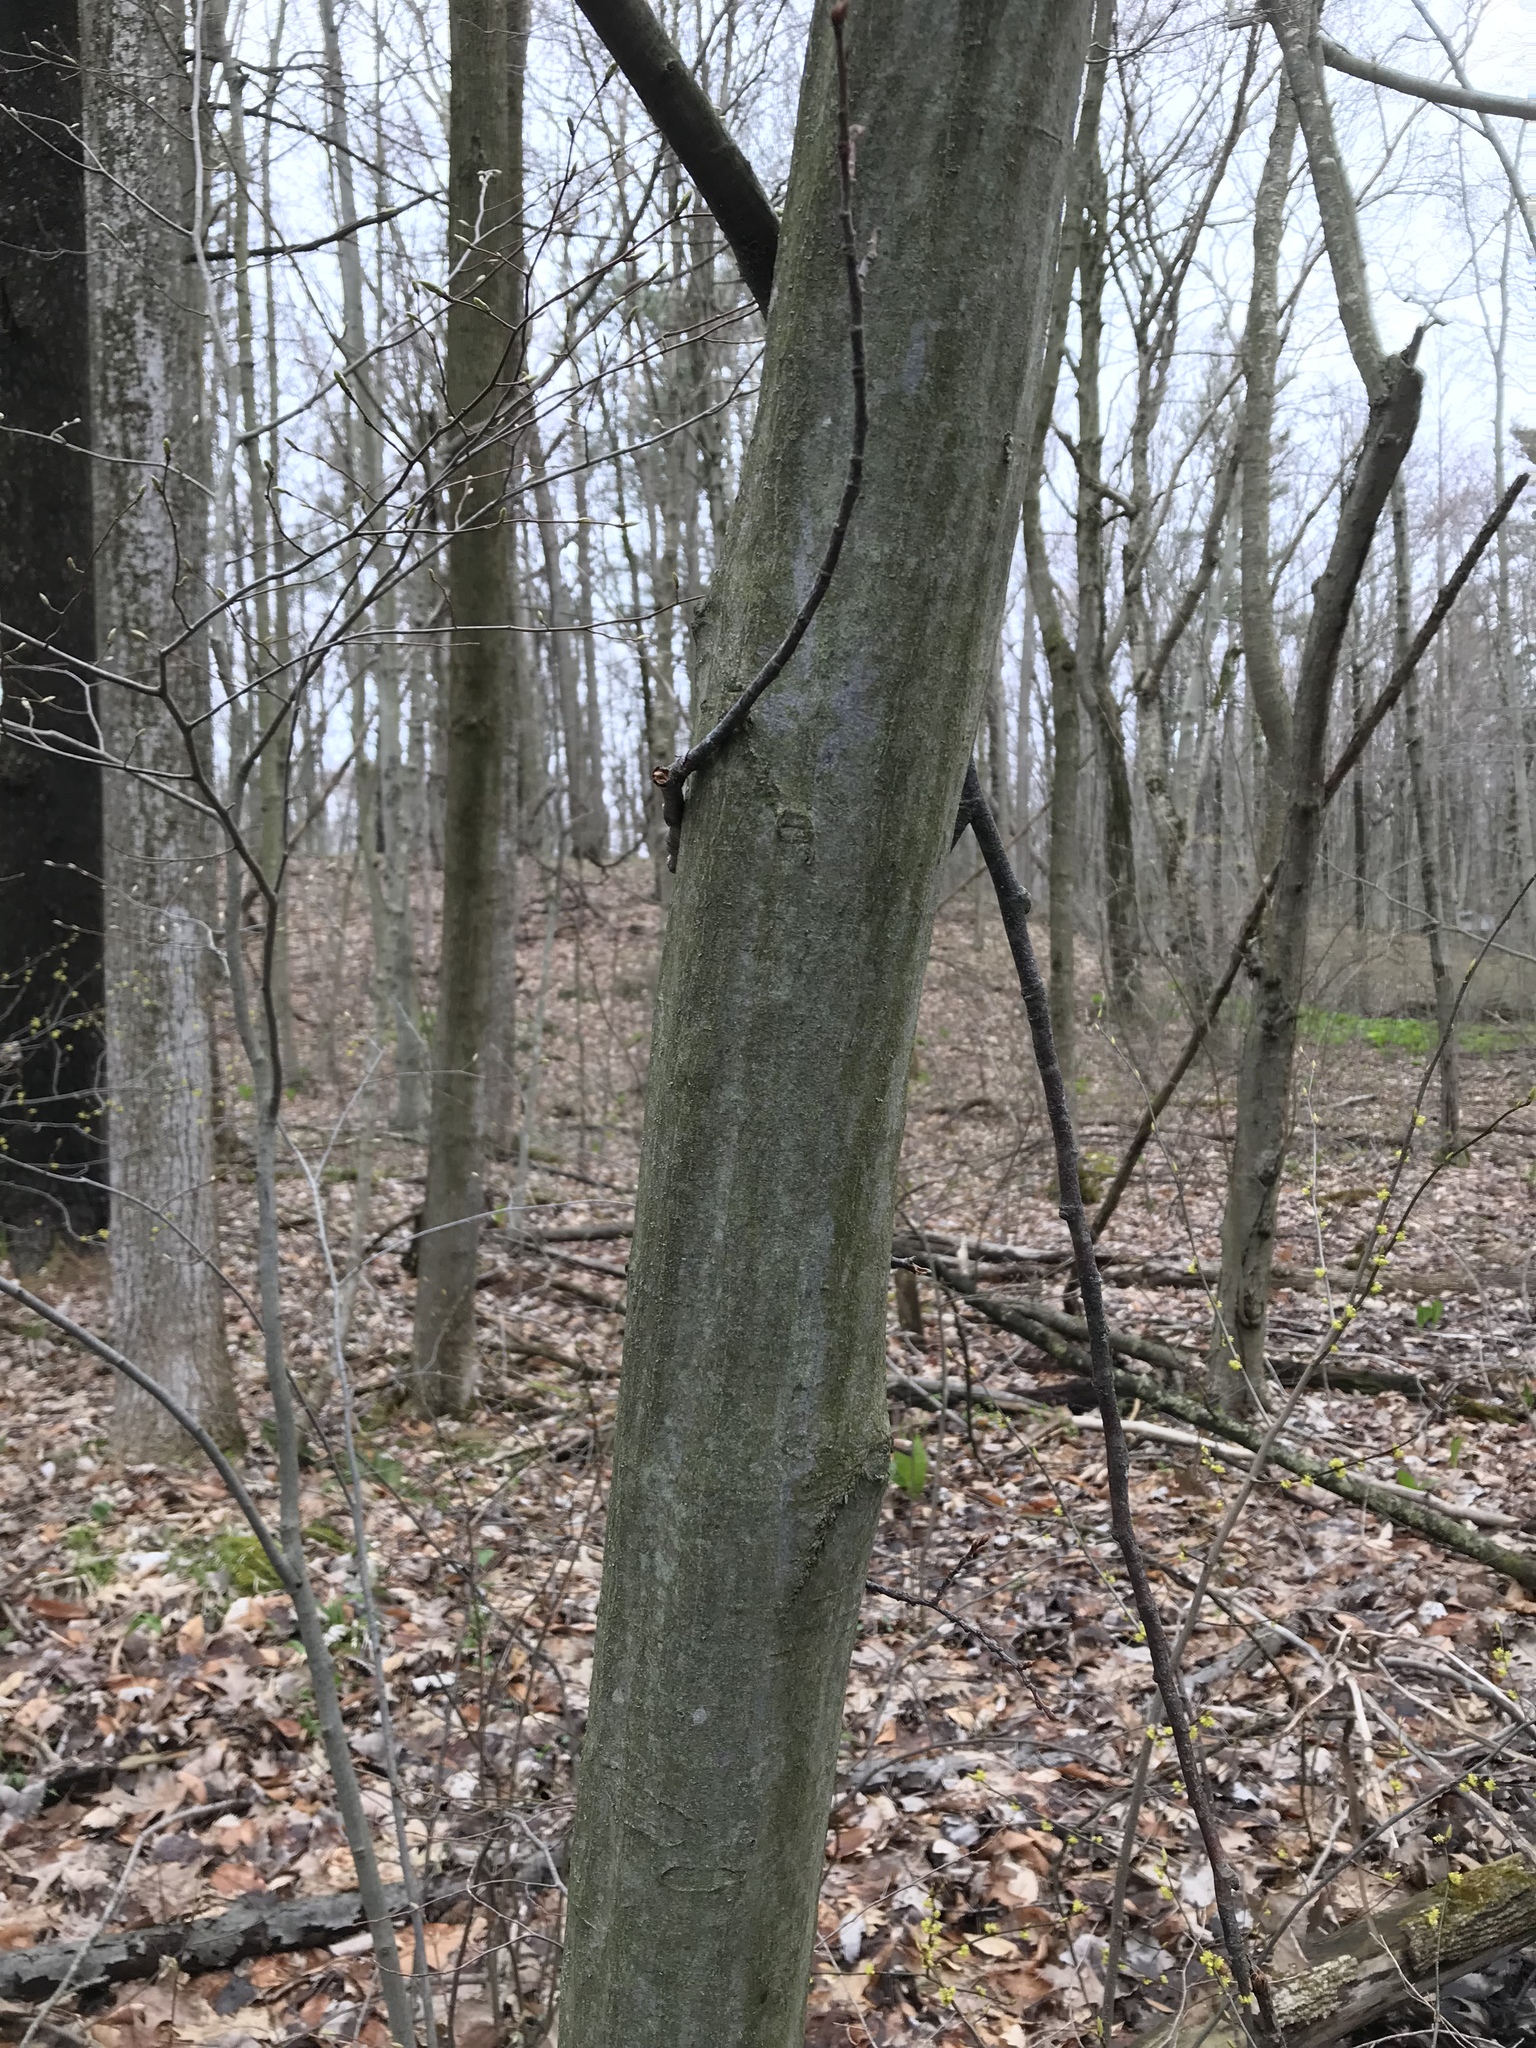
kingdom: Plantae
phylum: Tracheophyta
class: Magnoliopsida
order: Fagales
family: Betulaceae
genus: Carpinus
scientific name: Carpinus caroliniana
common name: American hornbeam
